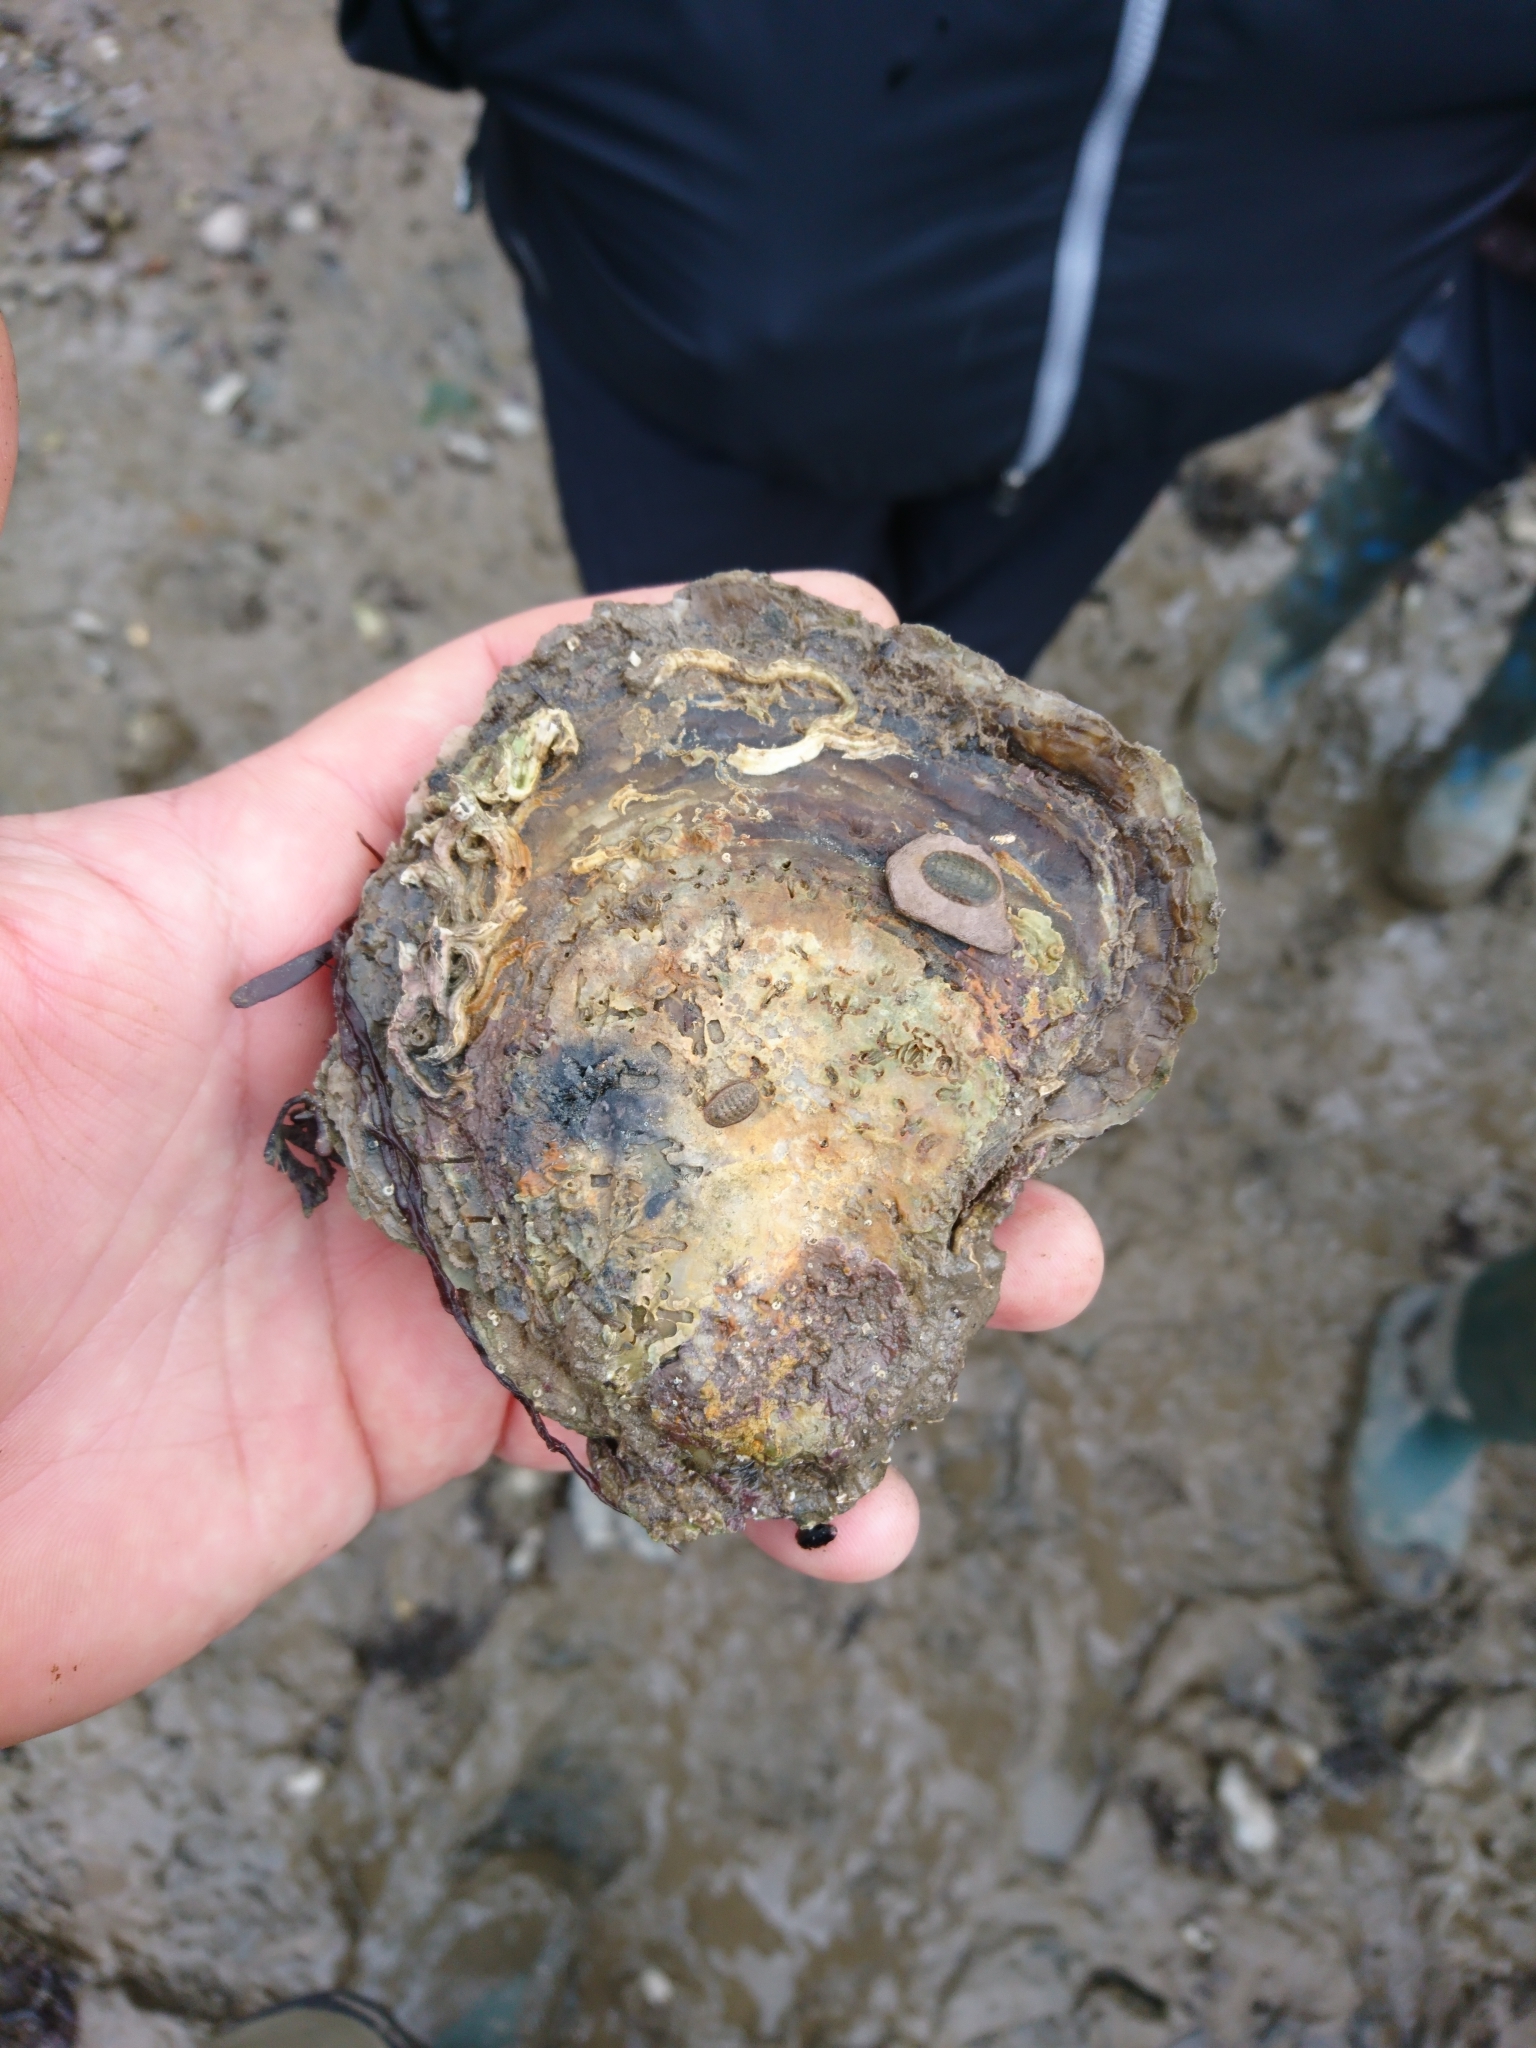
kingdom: Animalia
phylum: Mollusca
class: Bivalvia
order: Ostreida
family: Ostreidae
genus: Ostrea
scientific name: Ostrea edulis
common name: Flat oyster
